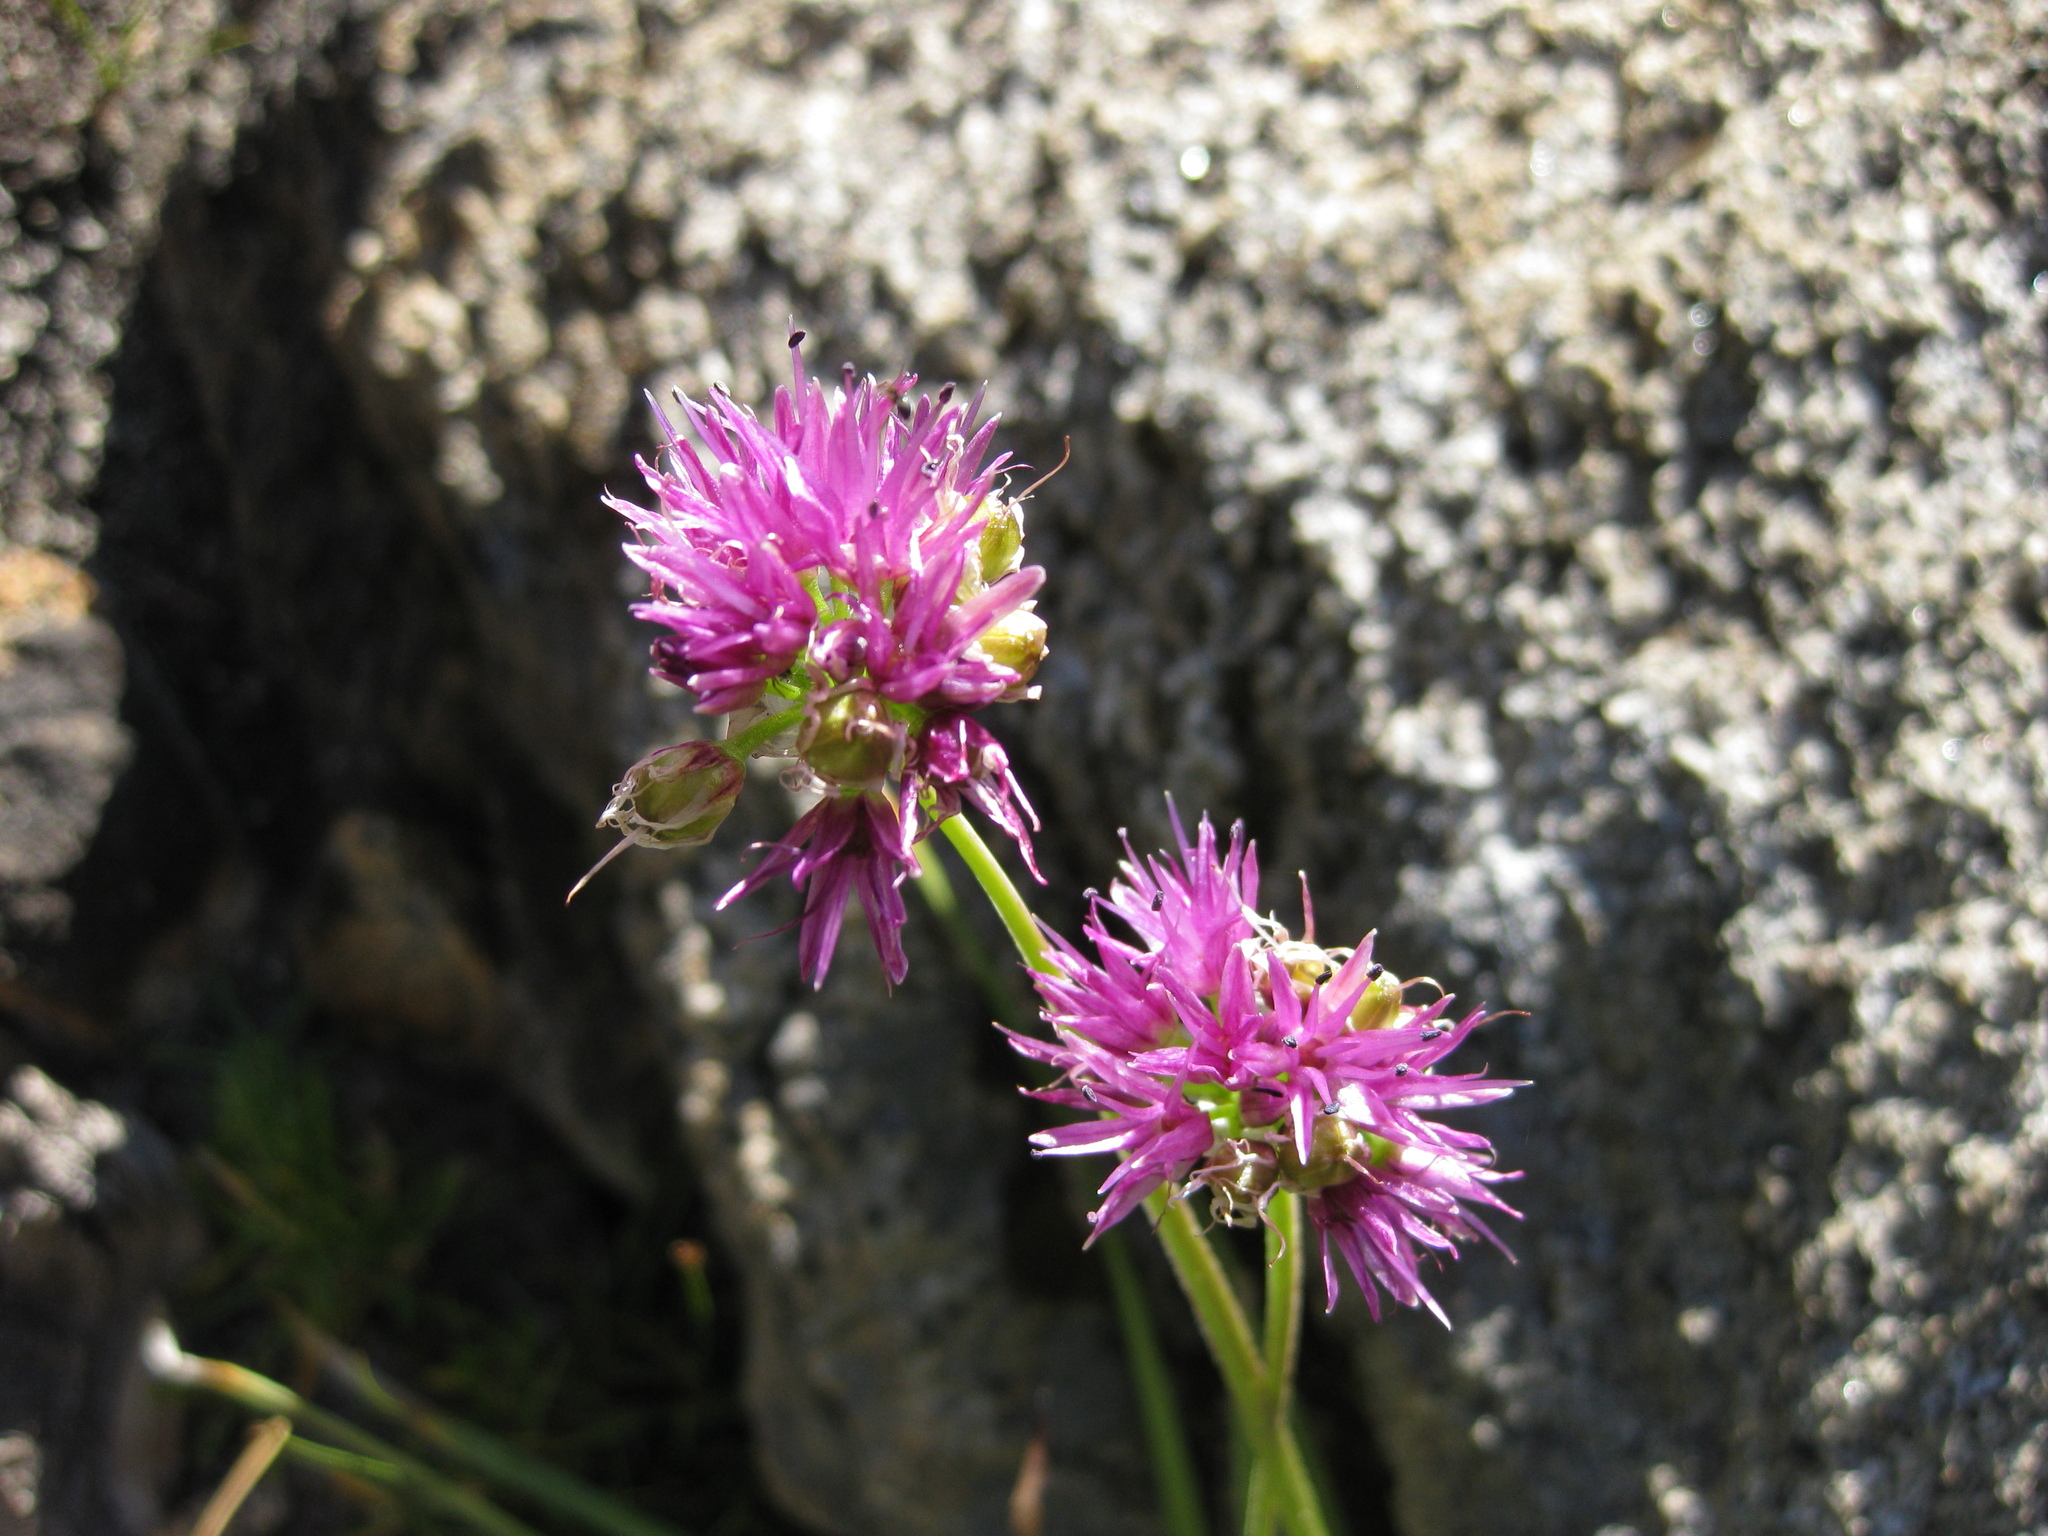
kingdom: Plantae
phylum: Tracheophyta
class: Liliopsida
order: Asparagales
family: Amaryllidaceae
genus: Allium
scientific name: Allium validum
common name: Pacific mountain onion
